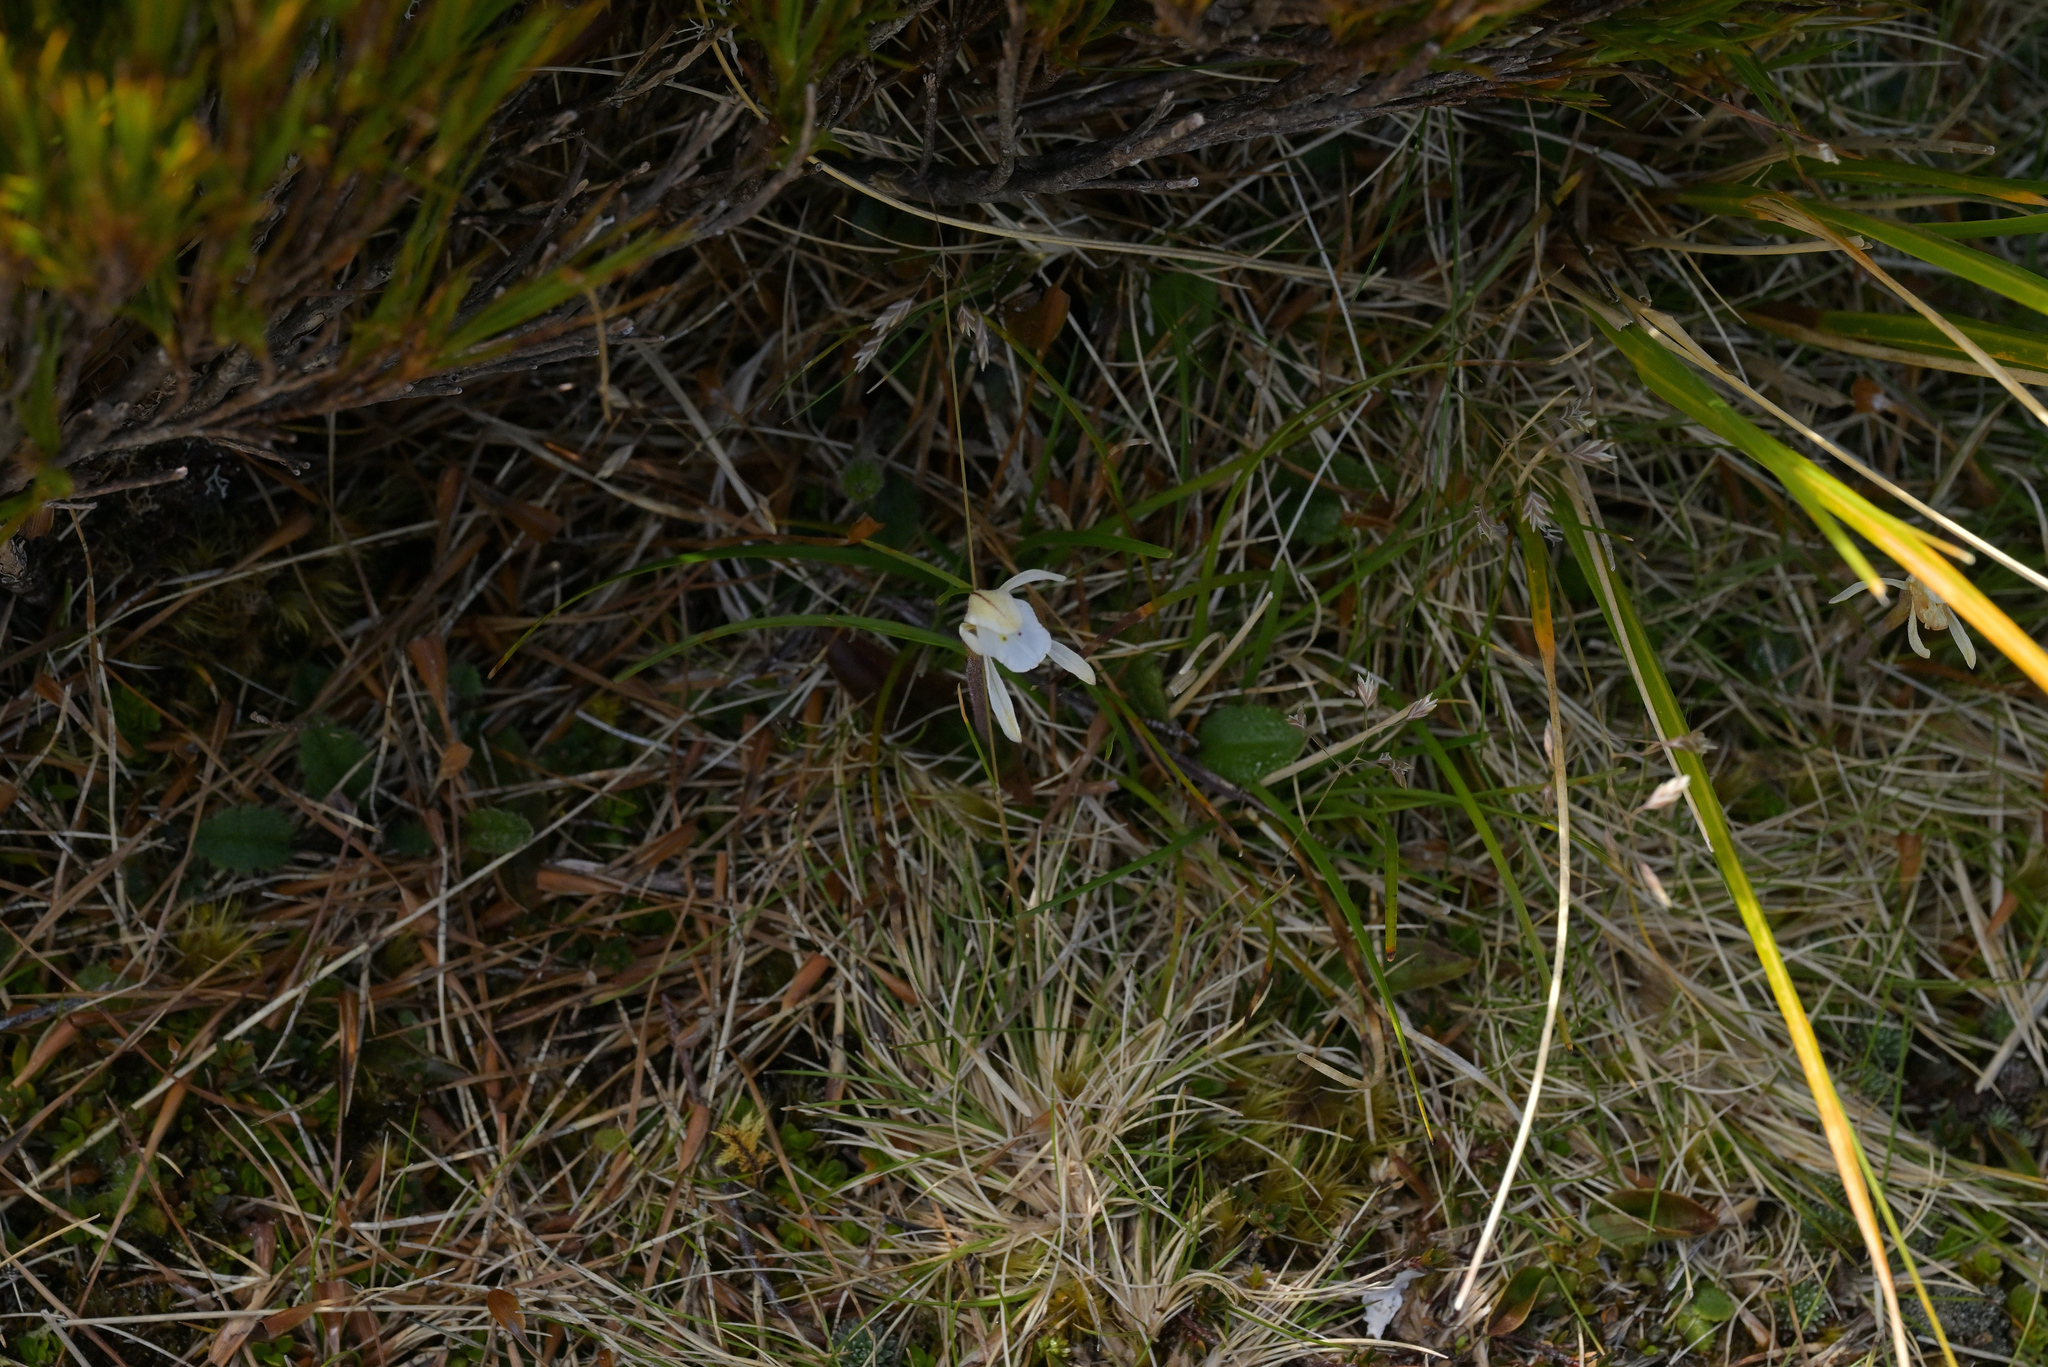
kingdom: Plantae
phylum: Tracheophyta
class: Liliopsida
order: Asparagales
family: Orchidaceae
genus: Aporostylis
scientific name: Aporostylis bifolia
